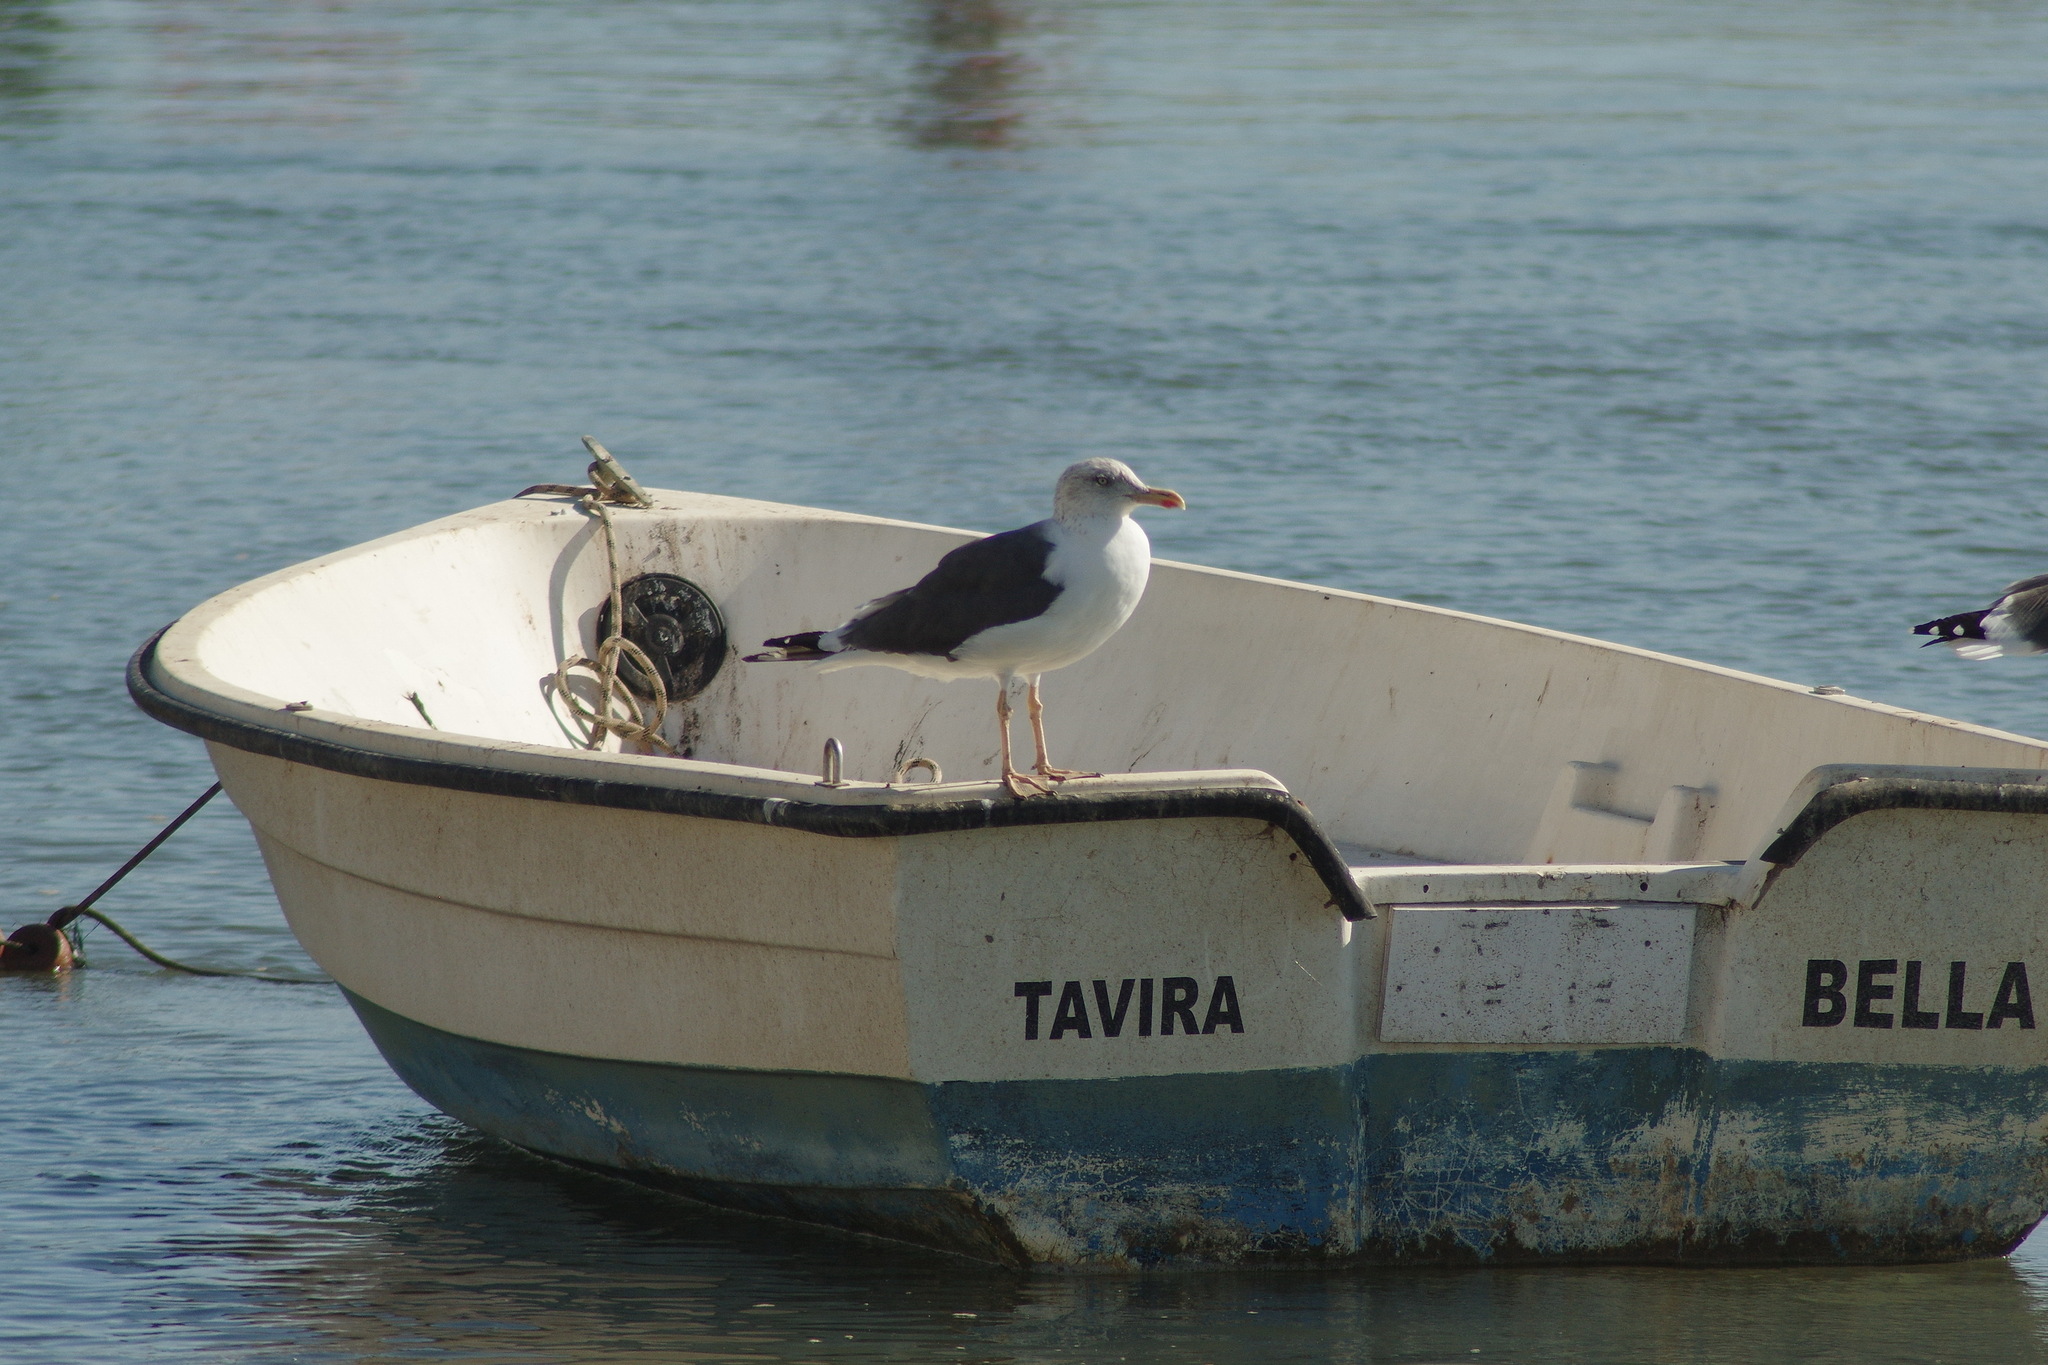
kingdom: Animalia
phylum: Chordata
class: Aves
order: Charadriiformes
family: Laridae
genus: Larus
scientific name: Larus fuscus
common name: Lesser black-backed gull
